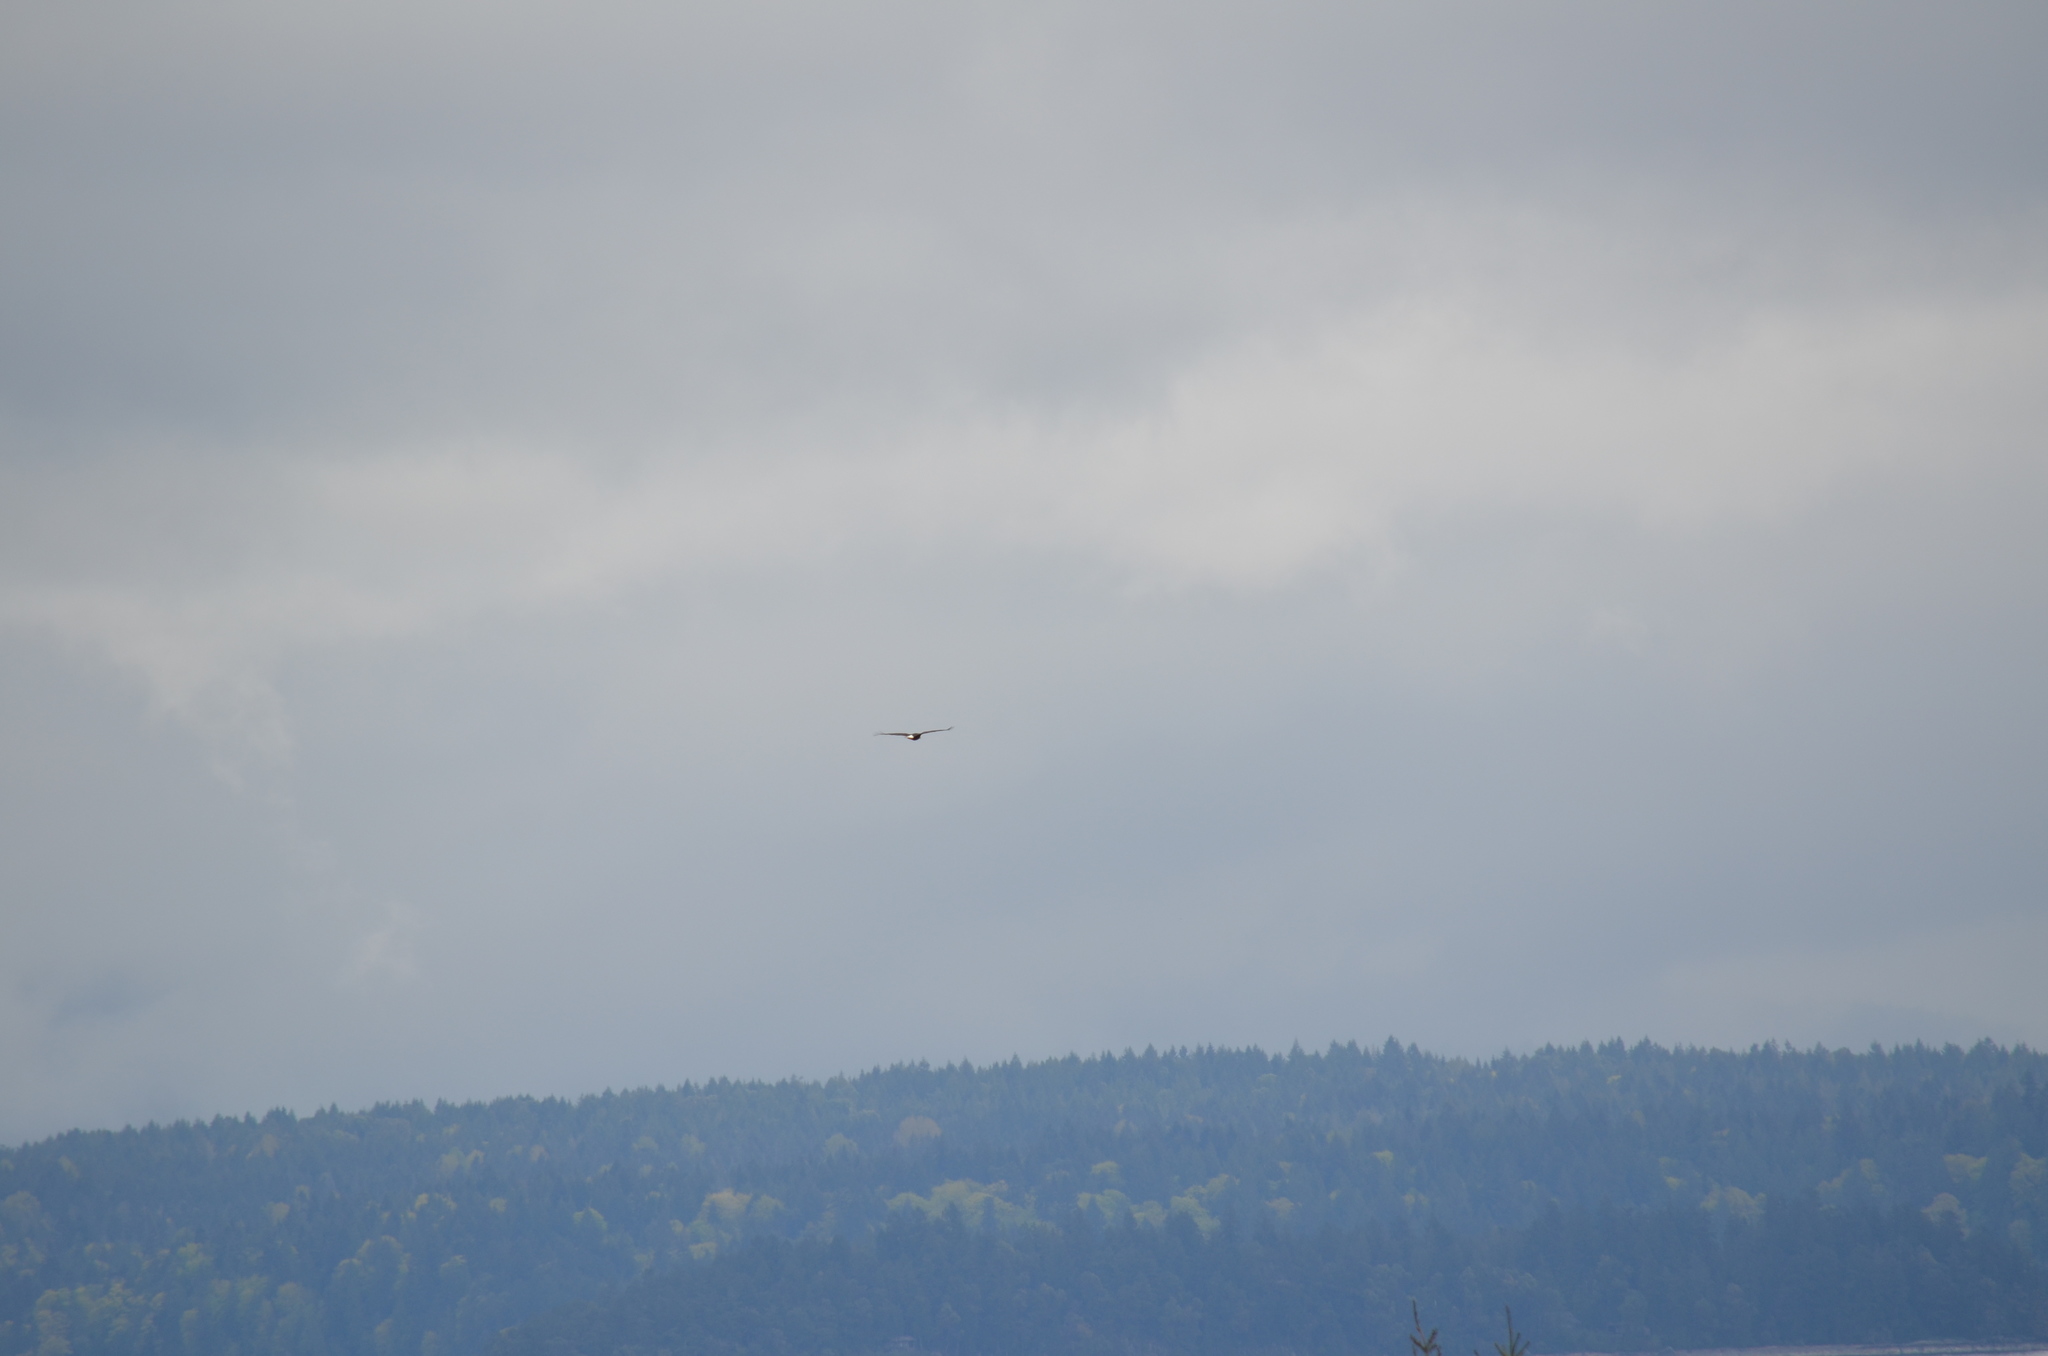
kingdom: Animalia
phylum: Chordata
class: Aves
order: Accipitriformes
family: Accipitridae
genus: Haliaeetus
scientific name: Haliaeetus leucocephalus
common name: Bald eagle
